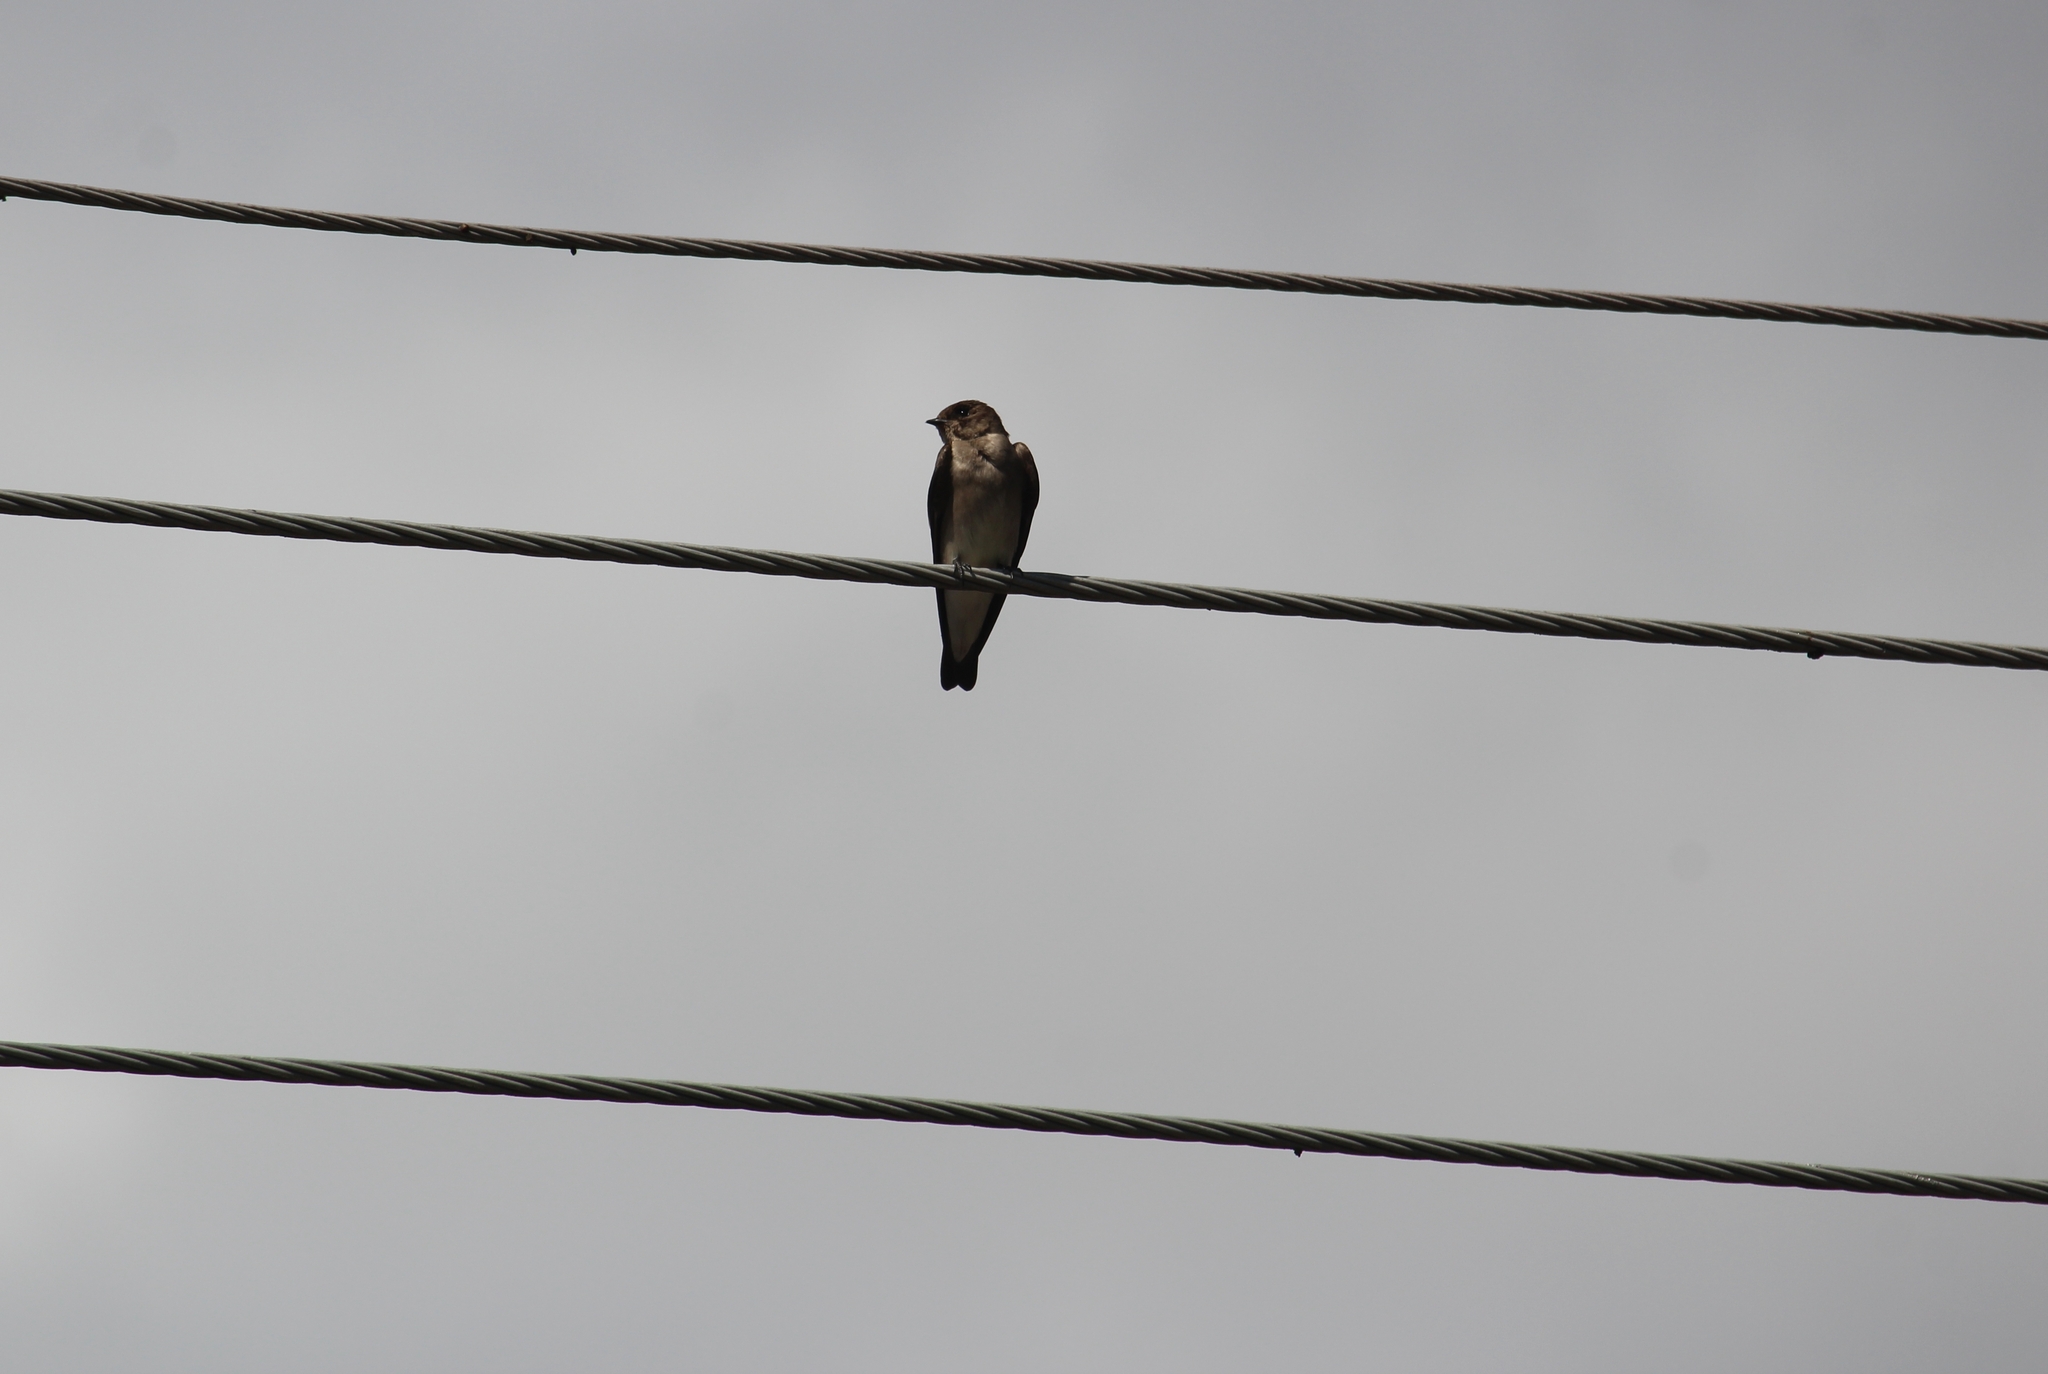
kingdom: Animalia
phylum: Chordata
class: Aves
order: Passeriformes
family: Hirundinidae
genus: Stelgidopteryx
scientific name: Stelgidopteryx serripennis
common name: Northern rough-winged swallow
